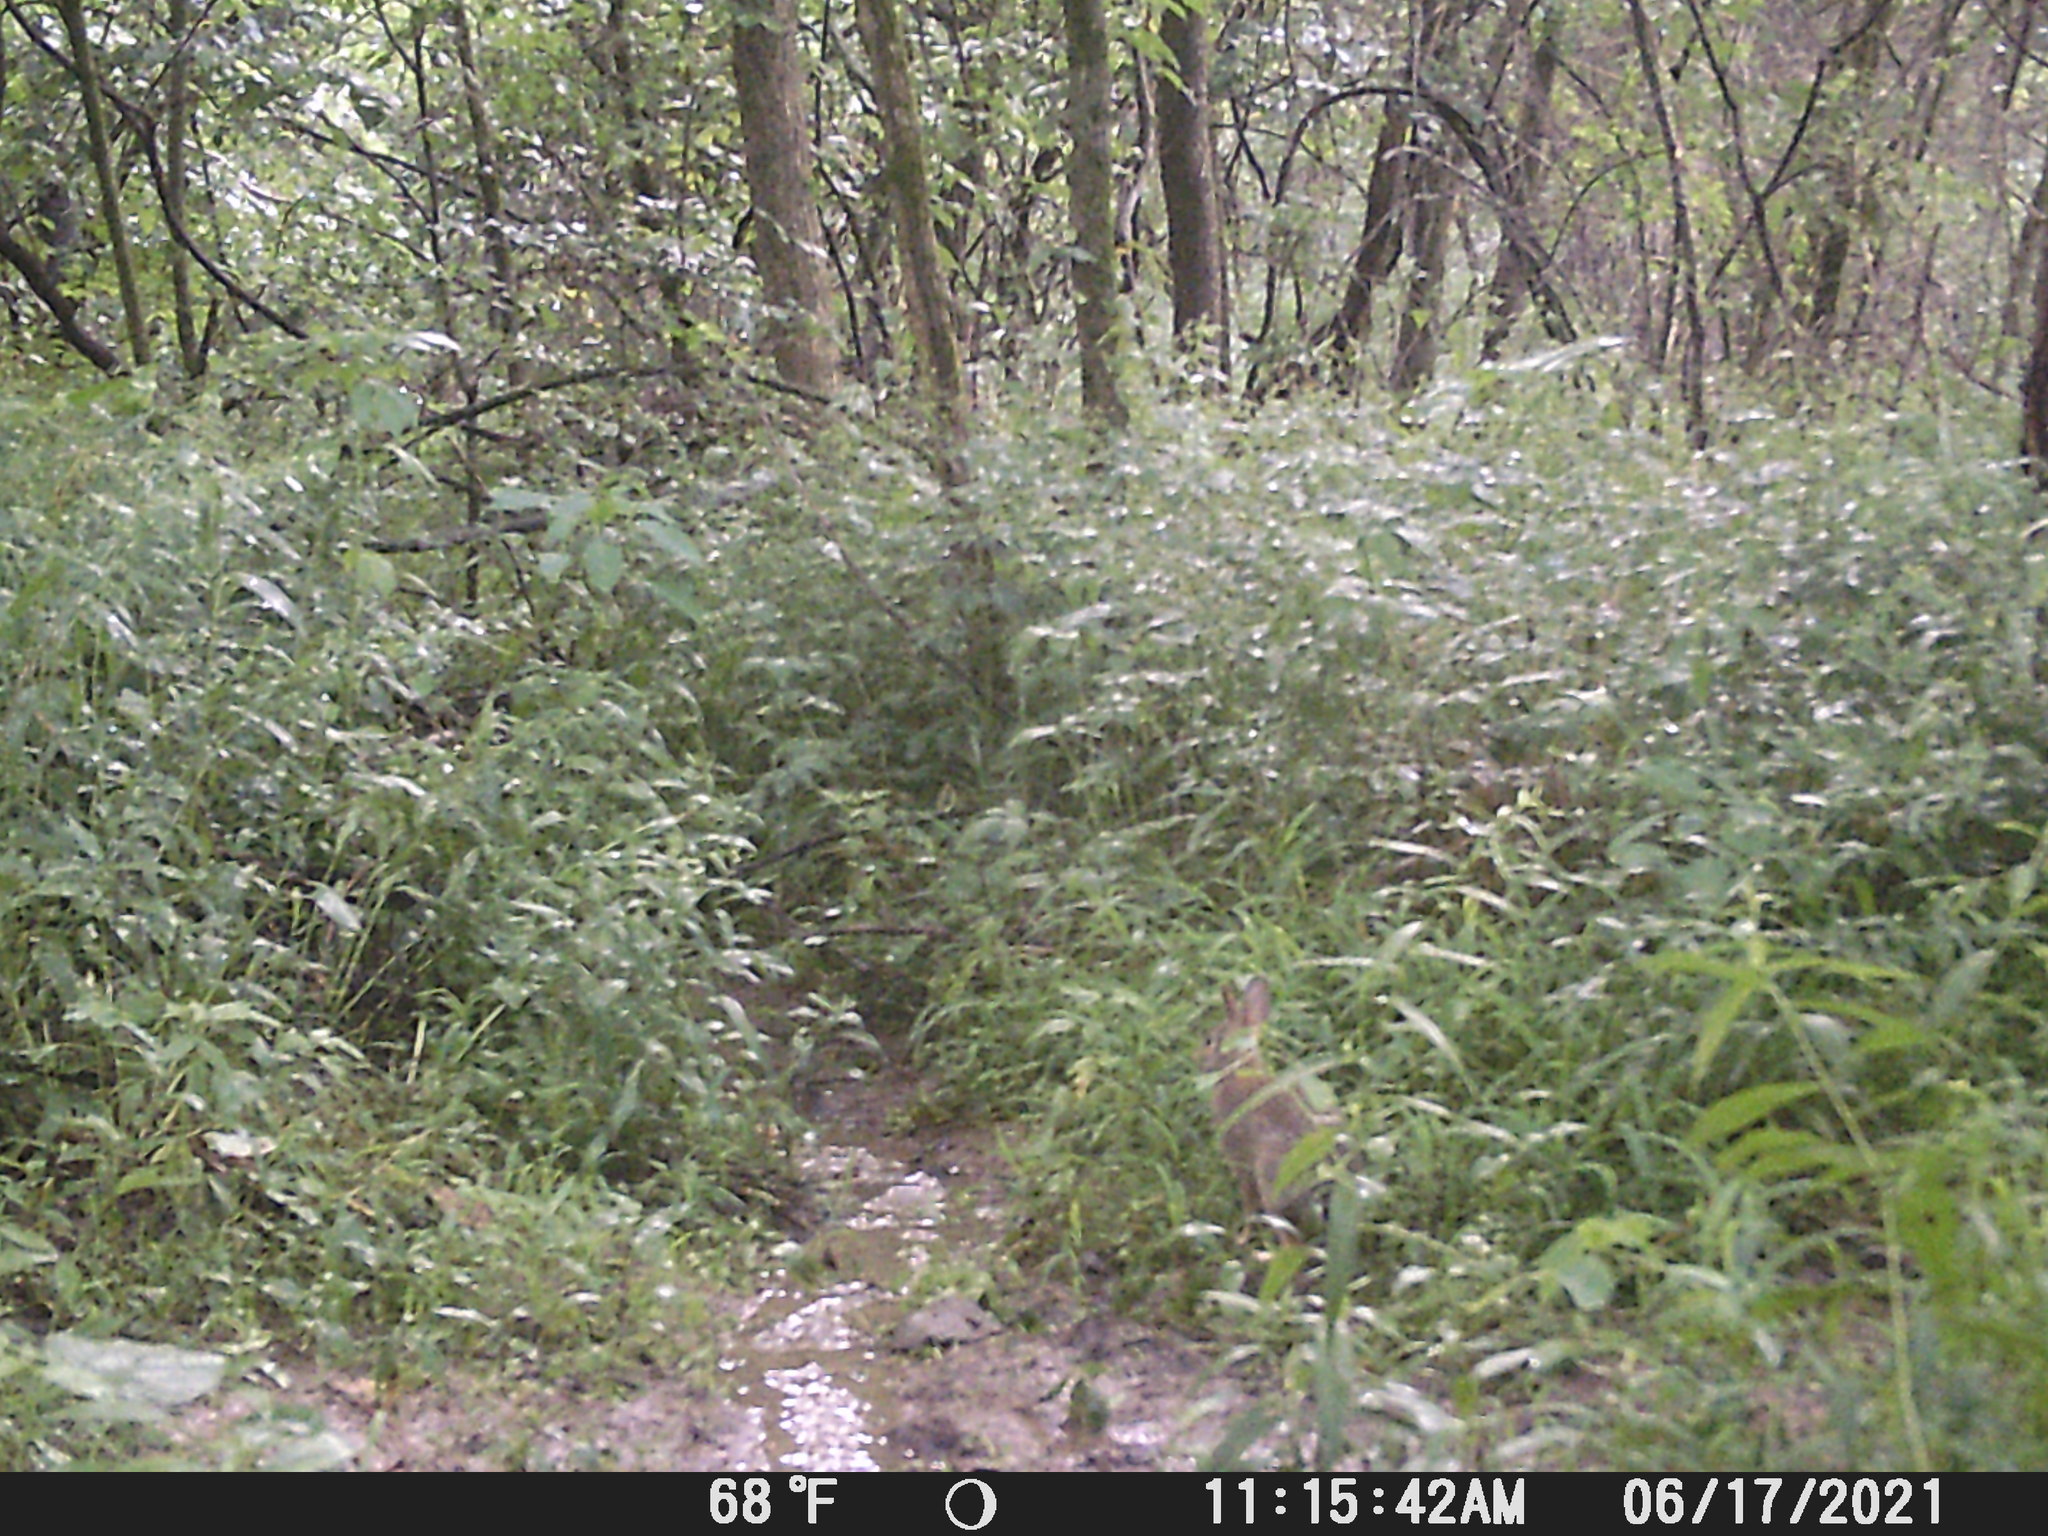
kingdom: Animalia
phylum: Chordata
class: Mammalia
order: Lagomorpha
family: Leporidae
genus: Sylvilagus
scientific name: Sylvilagus floridanus
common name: Eastern cottontail
